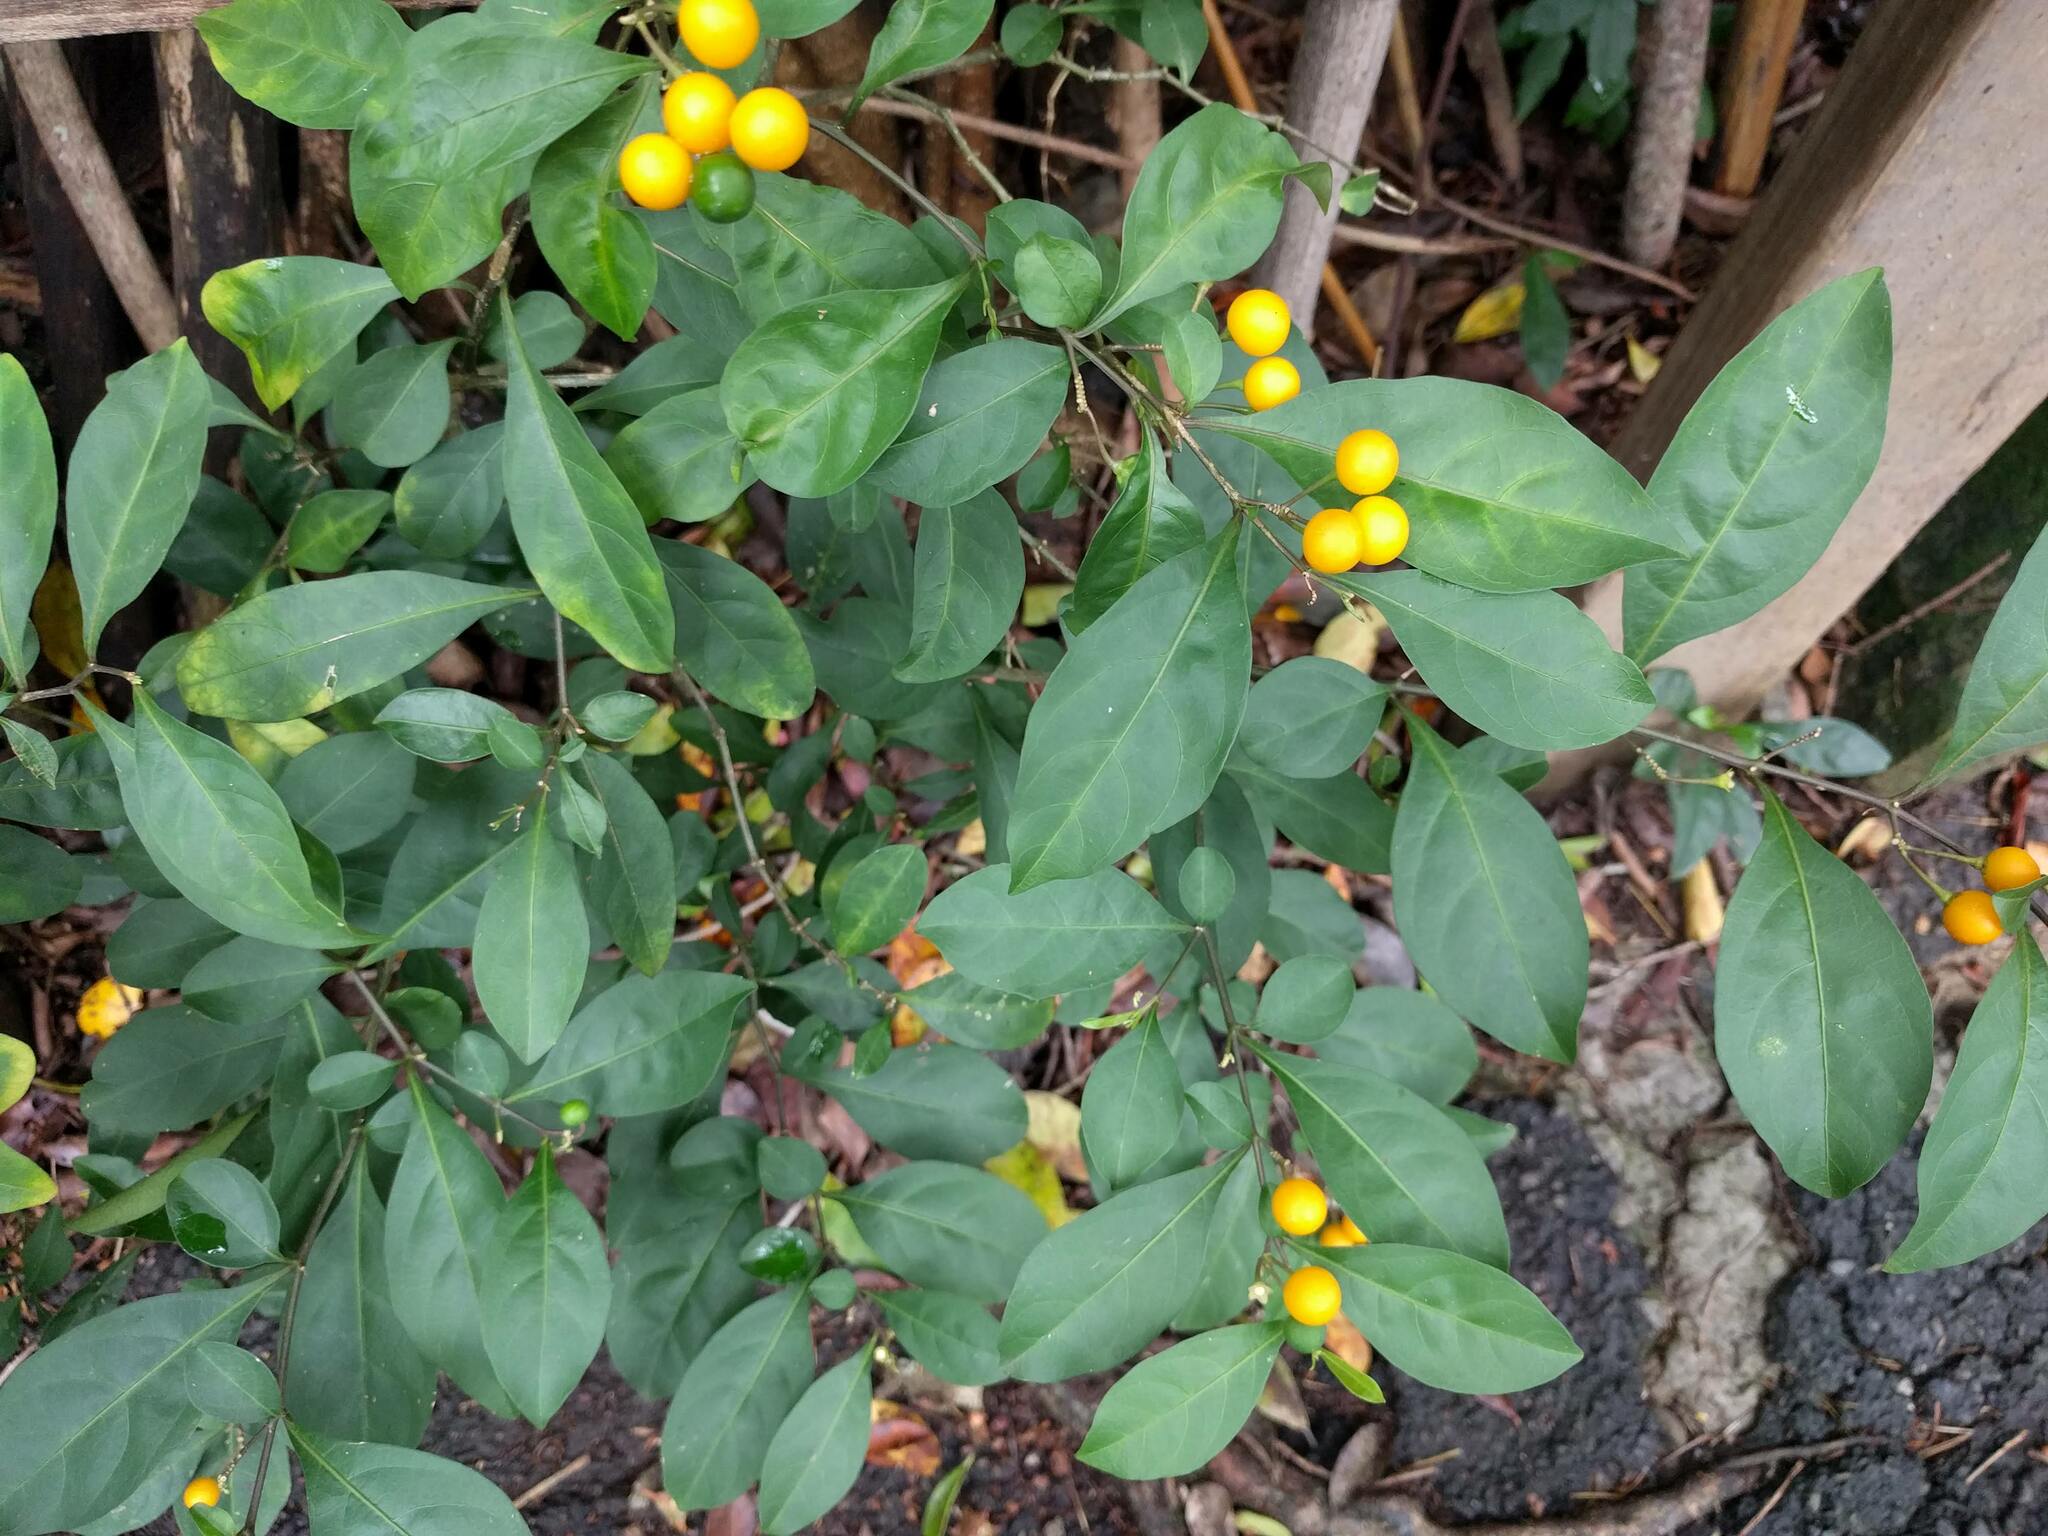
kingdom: Plantae
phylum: Tracheophyta
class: Magnoliopsida
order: Solanales
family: Solanaceae
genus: Solanum
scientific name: Solanum diphyllum
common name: Twoleaf nightshade
